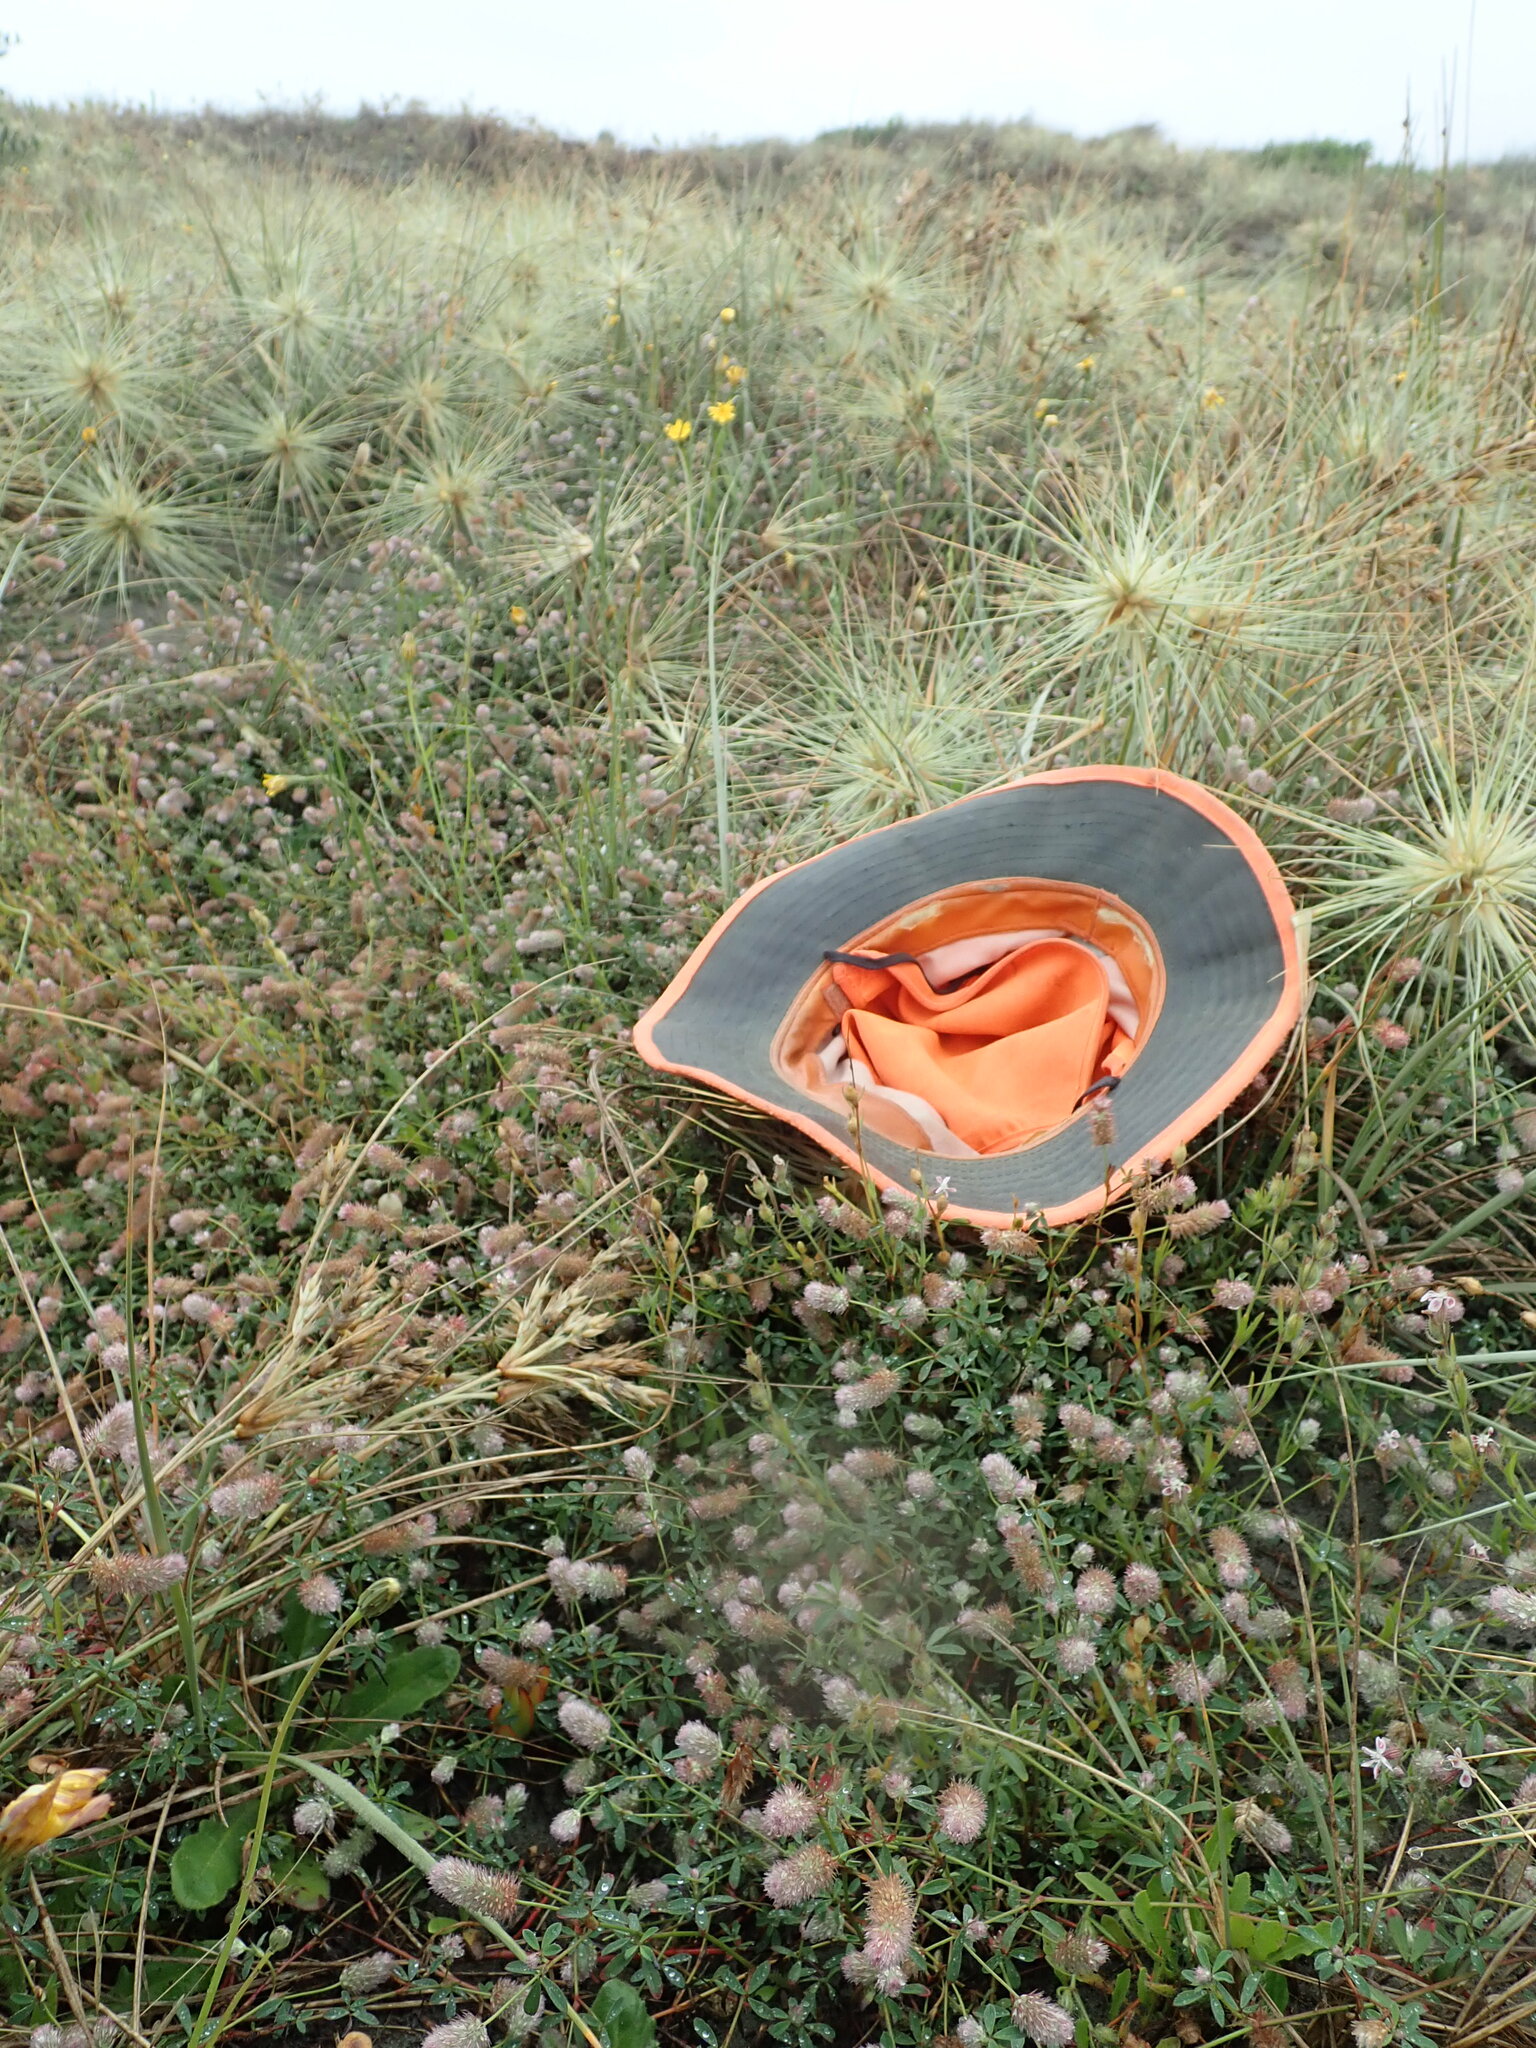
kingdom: Plantae
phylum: Tracheophyta
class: Magnoliopsida
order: Fabales
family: Fabaceae
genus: Trifolium
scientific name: Trifolium arvense
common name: Hare's-foot clover
